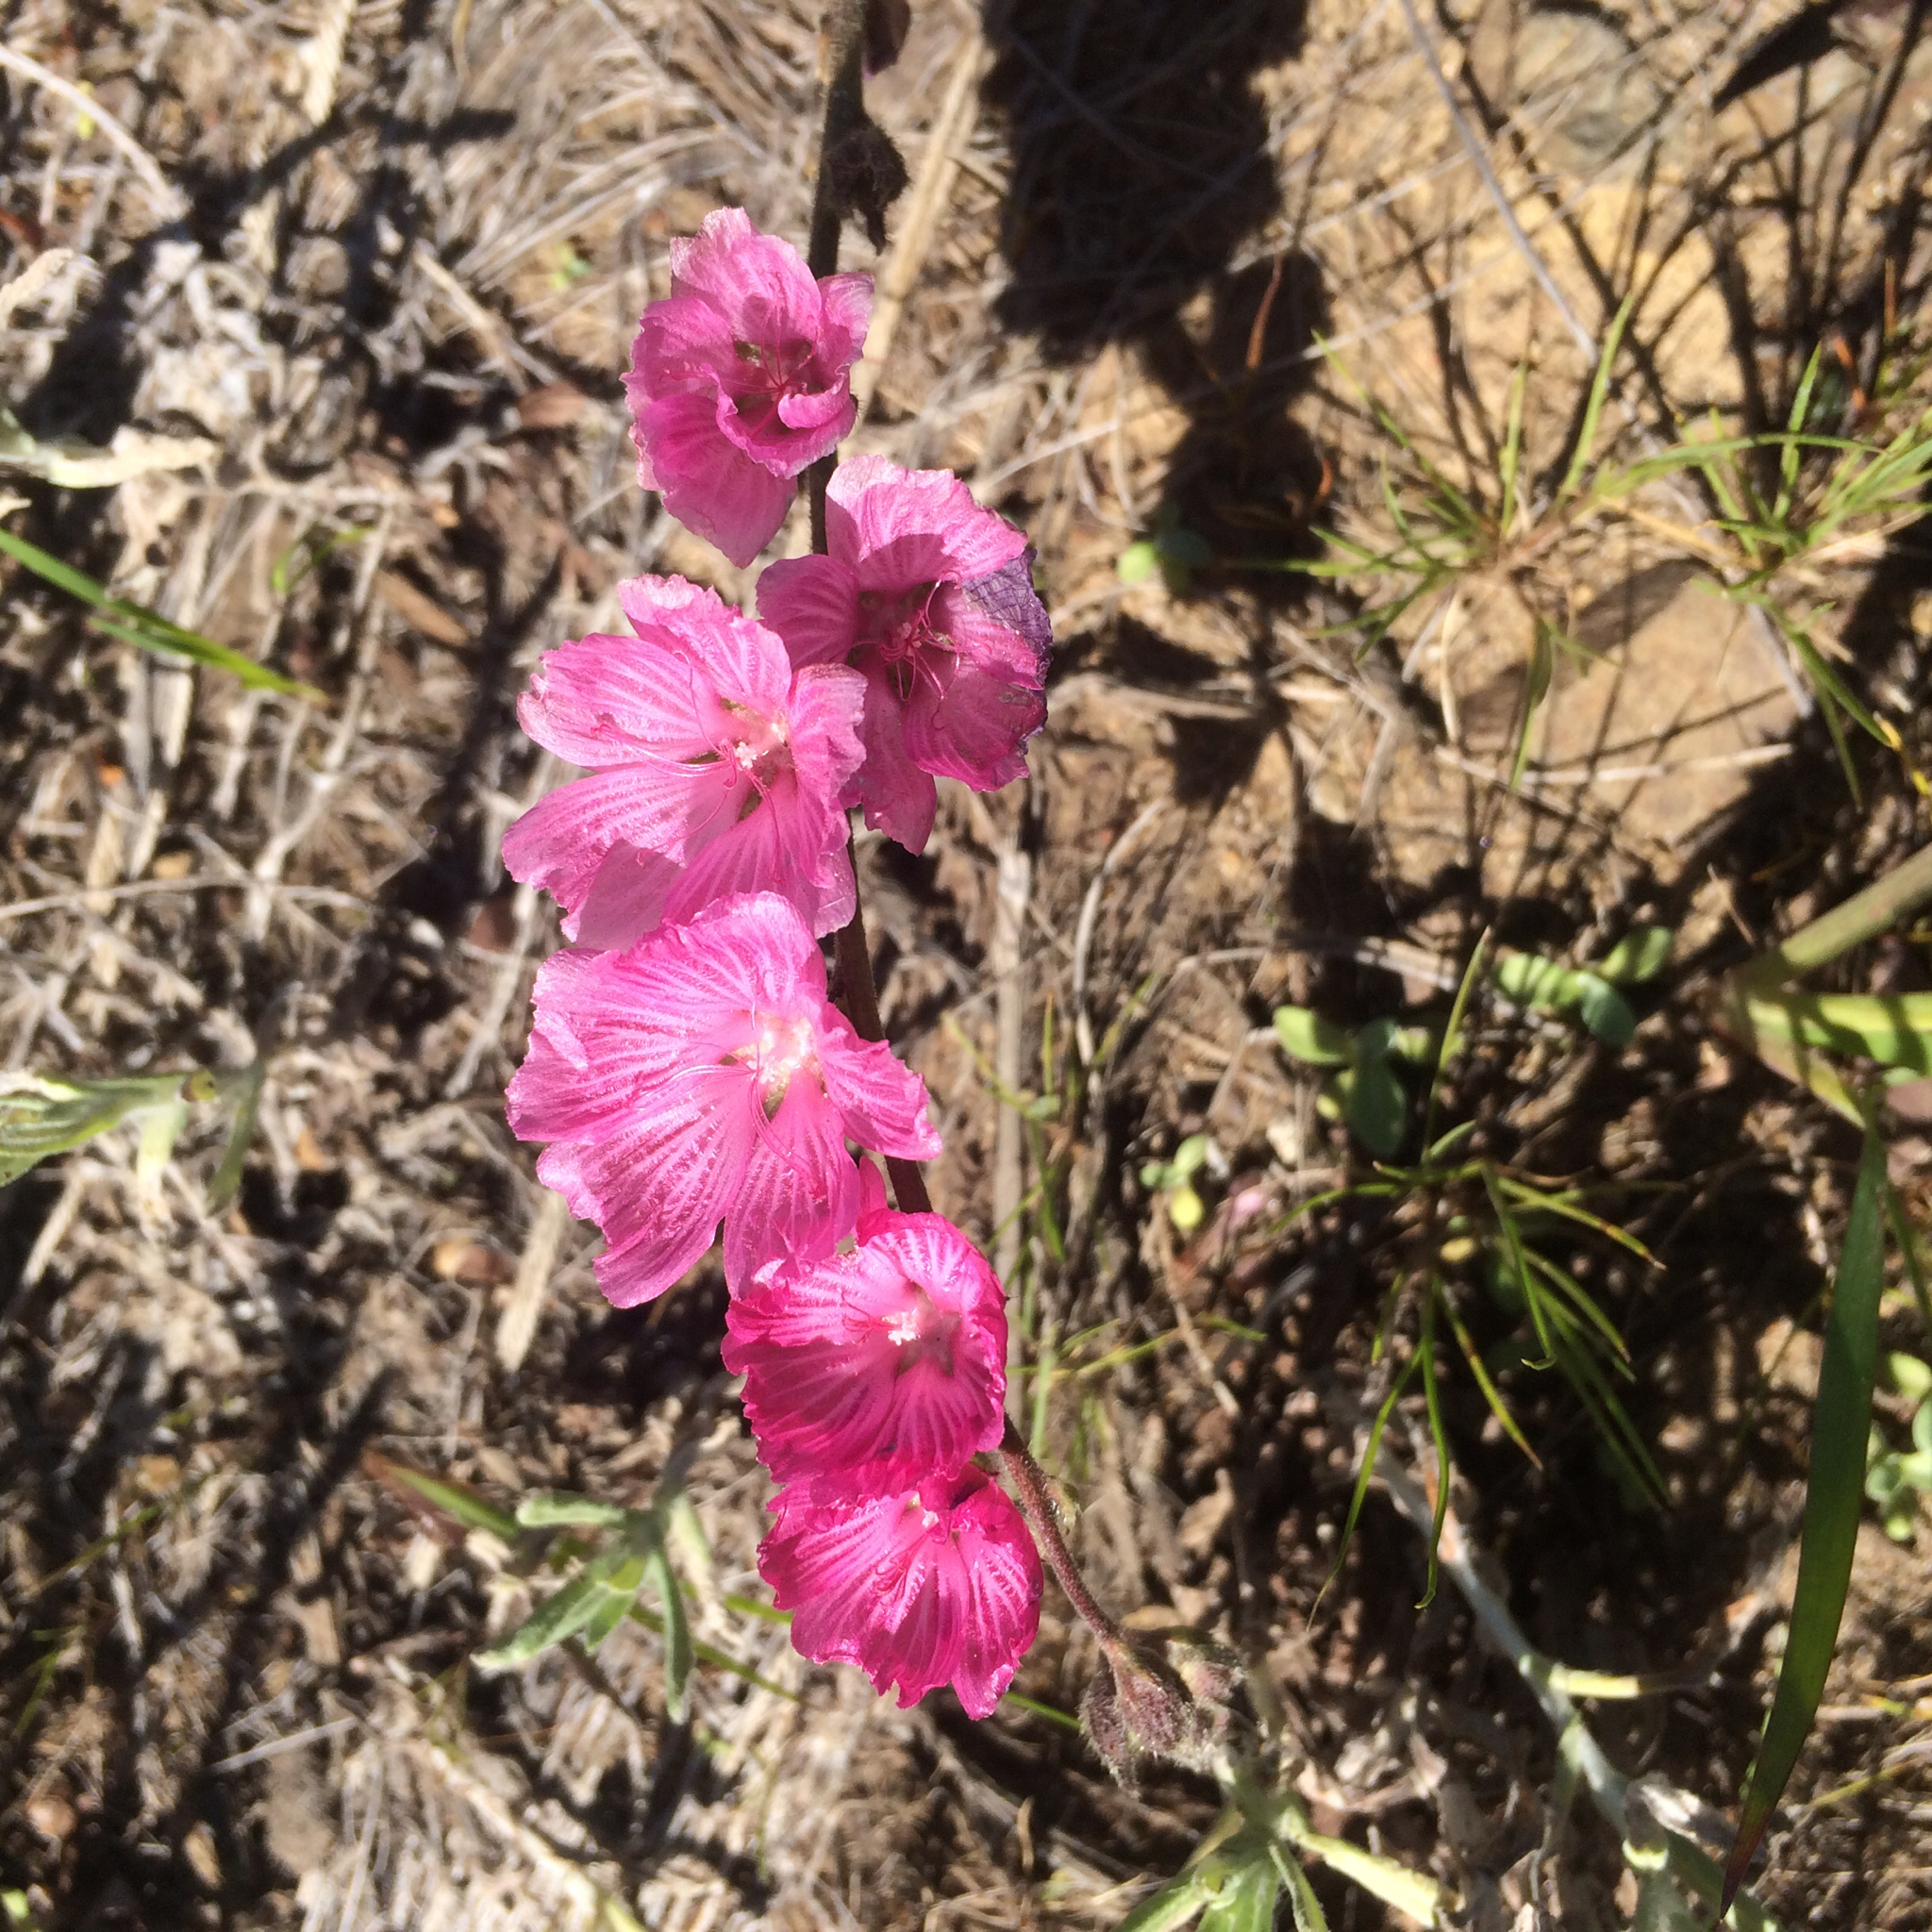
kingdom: Plantae
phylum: Tracheophyta
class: Magnoliopsida
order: Malvales
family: Malvaceae
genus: Sidalcea
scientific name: Sidalcea malviflora
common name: Greek mallow
